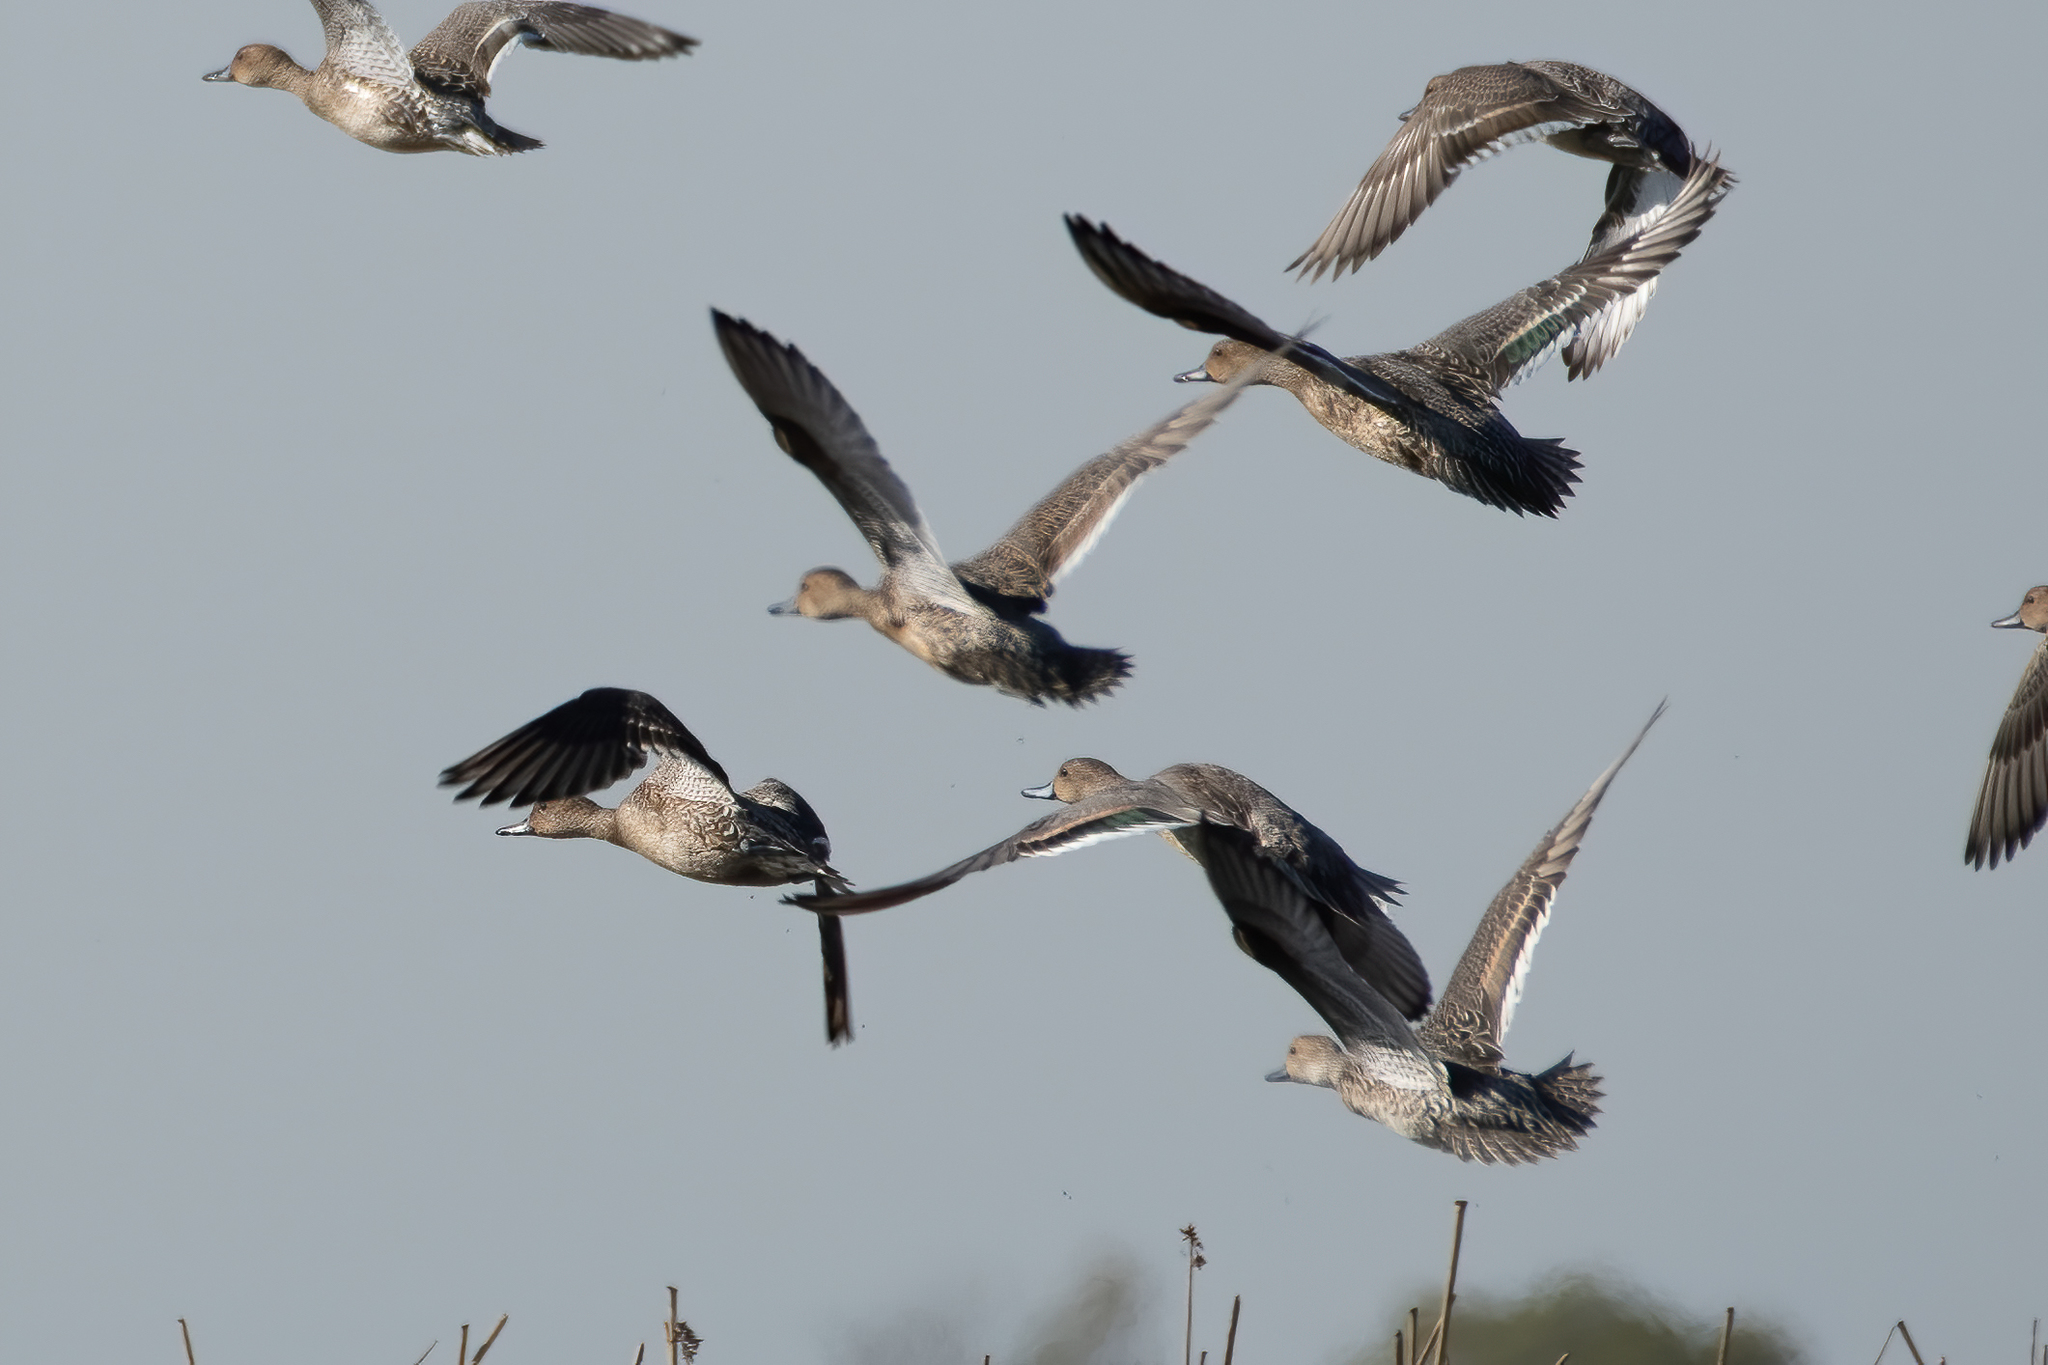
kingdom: Animalia
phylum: Chordata
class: Aves
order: Anseriformes
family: Anatidae
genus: Anas
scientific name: Anas acuta
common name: Northern pintail
